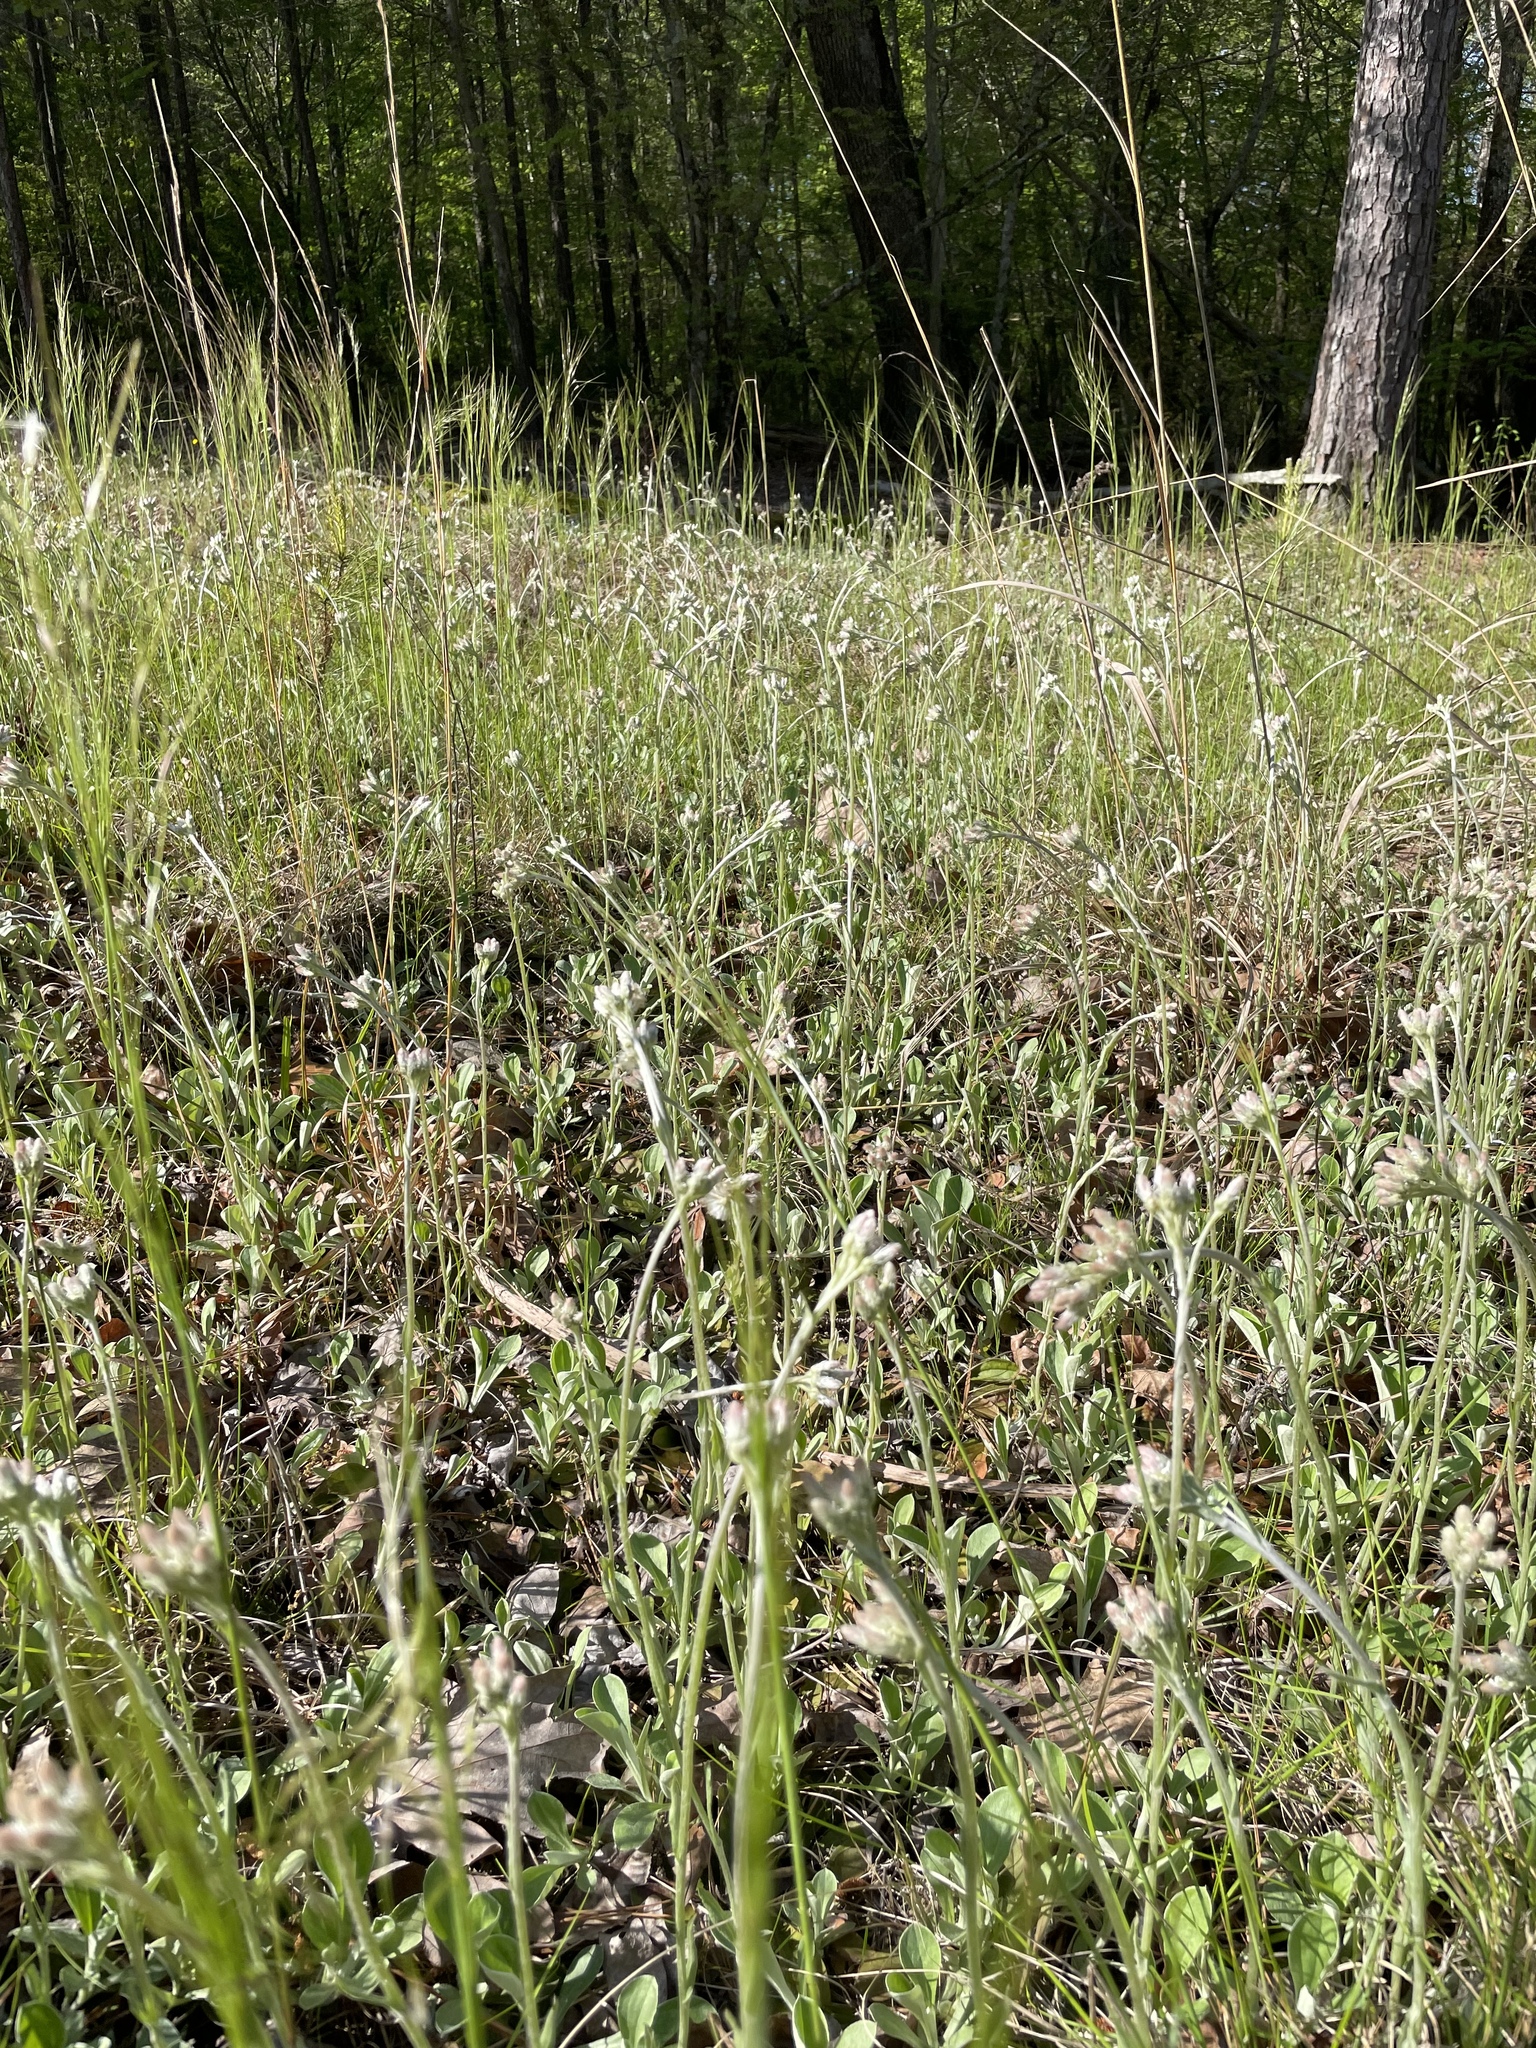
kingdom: Plantae
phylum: Tracheophyta
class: Magnoliopsida
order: Asterales
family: Asteraceae
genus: Antennaria
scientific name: Antennaria parlinii
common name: Parlin's pussytoes
